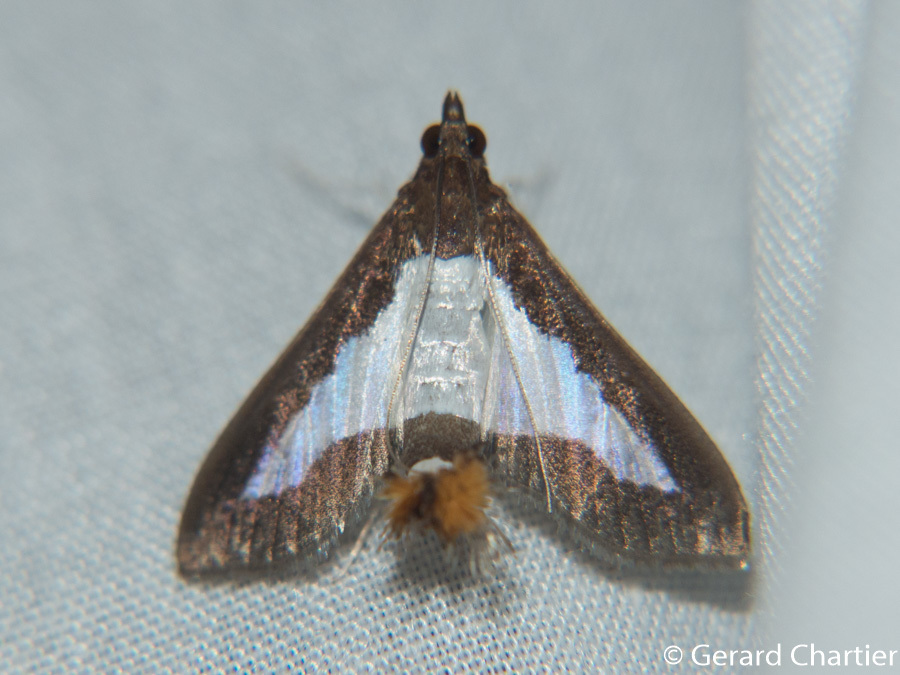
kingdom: Animalia
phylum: Arthropoda
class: Insecta
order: Lepidoptera
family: Crambidae
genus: Diaphania
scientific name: Diaphania indica
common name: Cucumber moth
